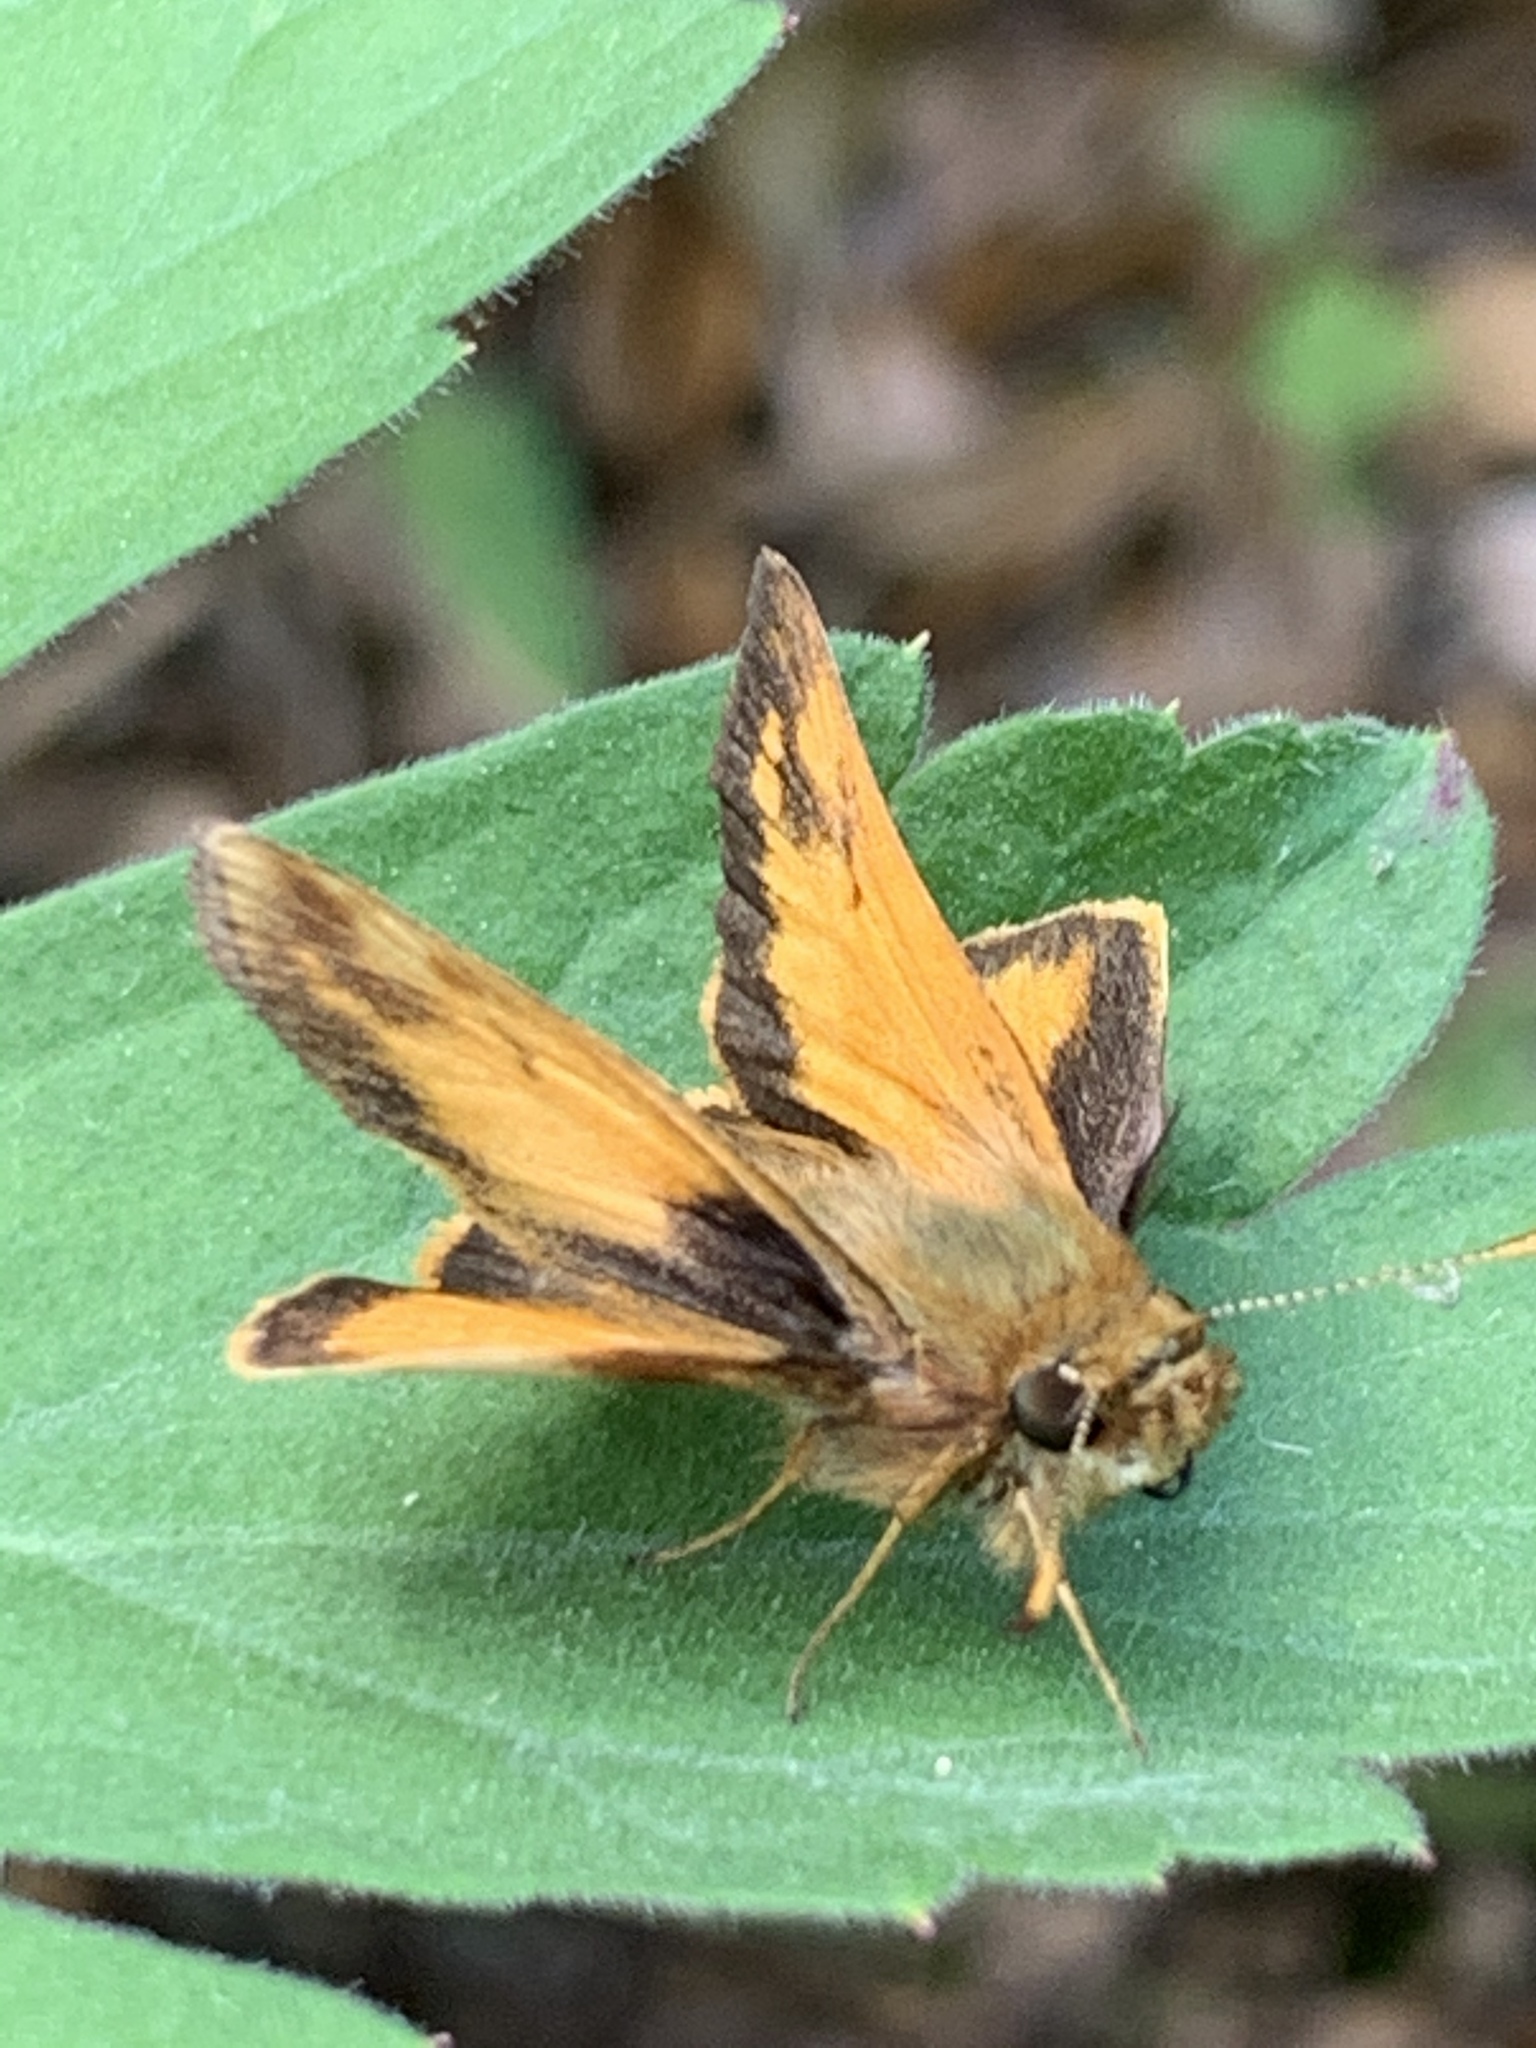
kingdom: Animalia
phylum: Arthropoda
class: Insecta
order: Lepidoptera
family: Hesperiidae
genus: Lon
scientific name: Lon zabulon
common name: Zabulon skipper
